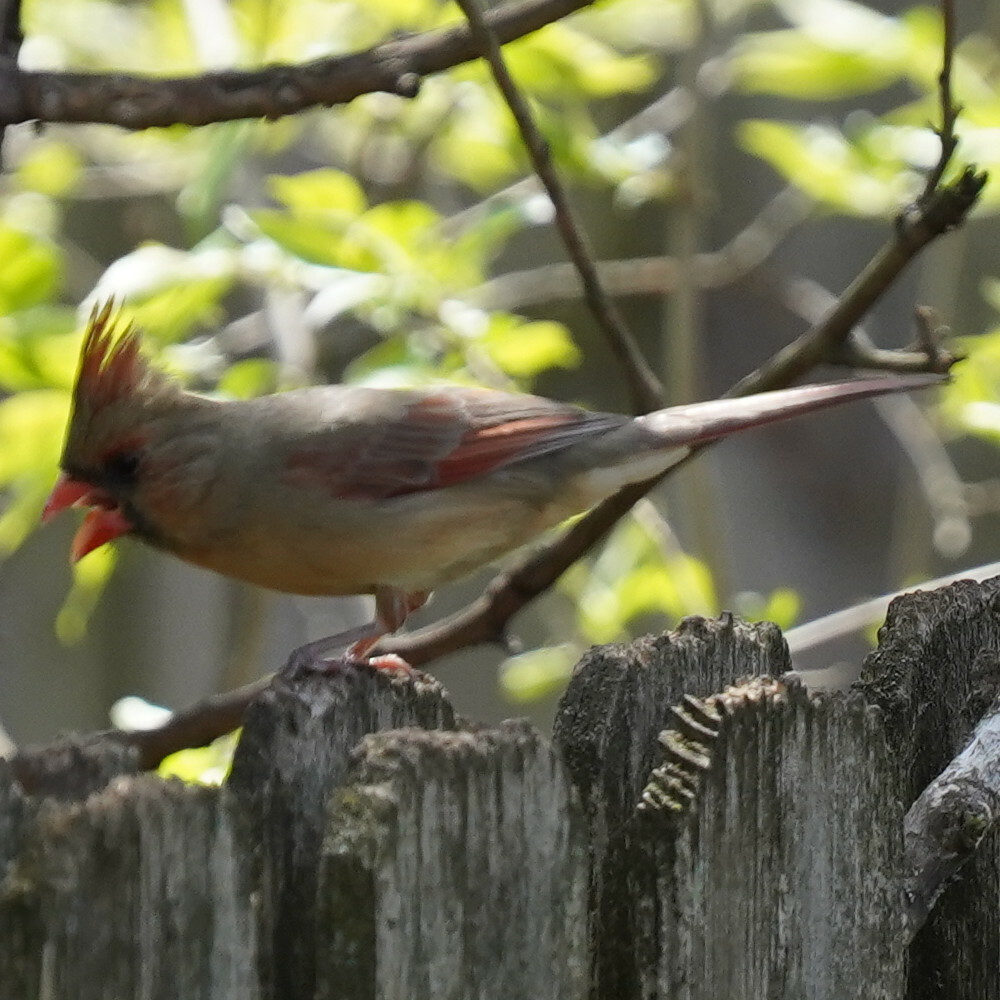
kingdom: Animalia
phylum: Chordata
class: Aves
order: Passeriformes
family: Cardinalidae
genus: Cardinalis
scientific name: Cardinalis cardinalis
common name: Northern cardinal
